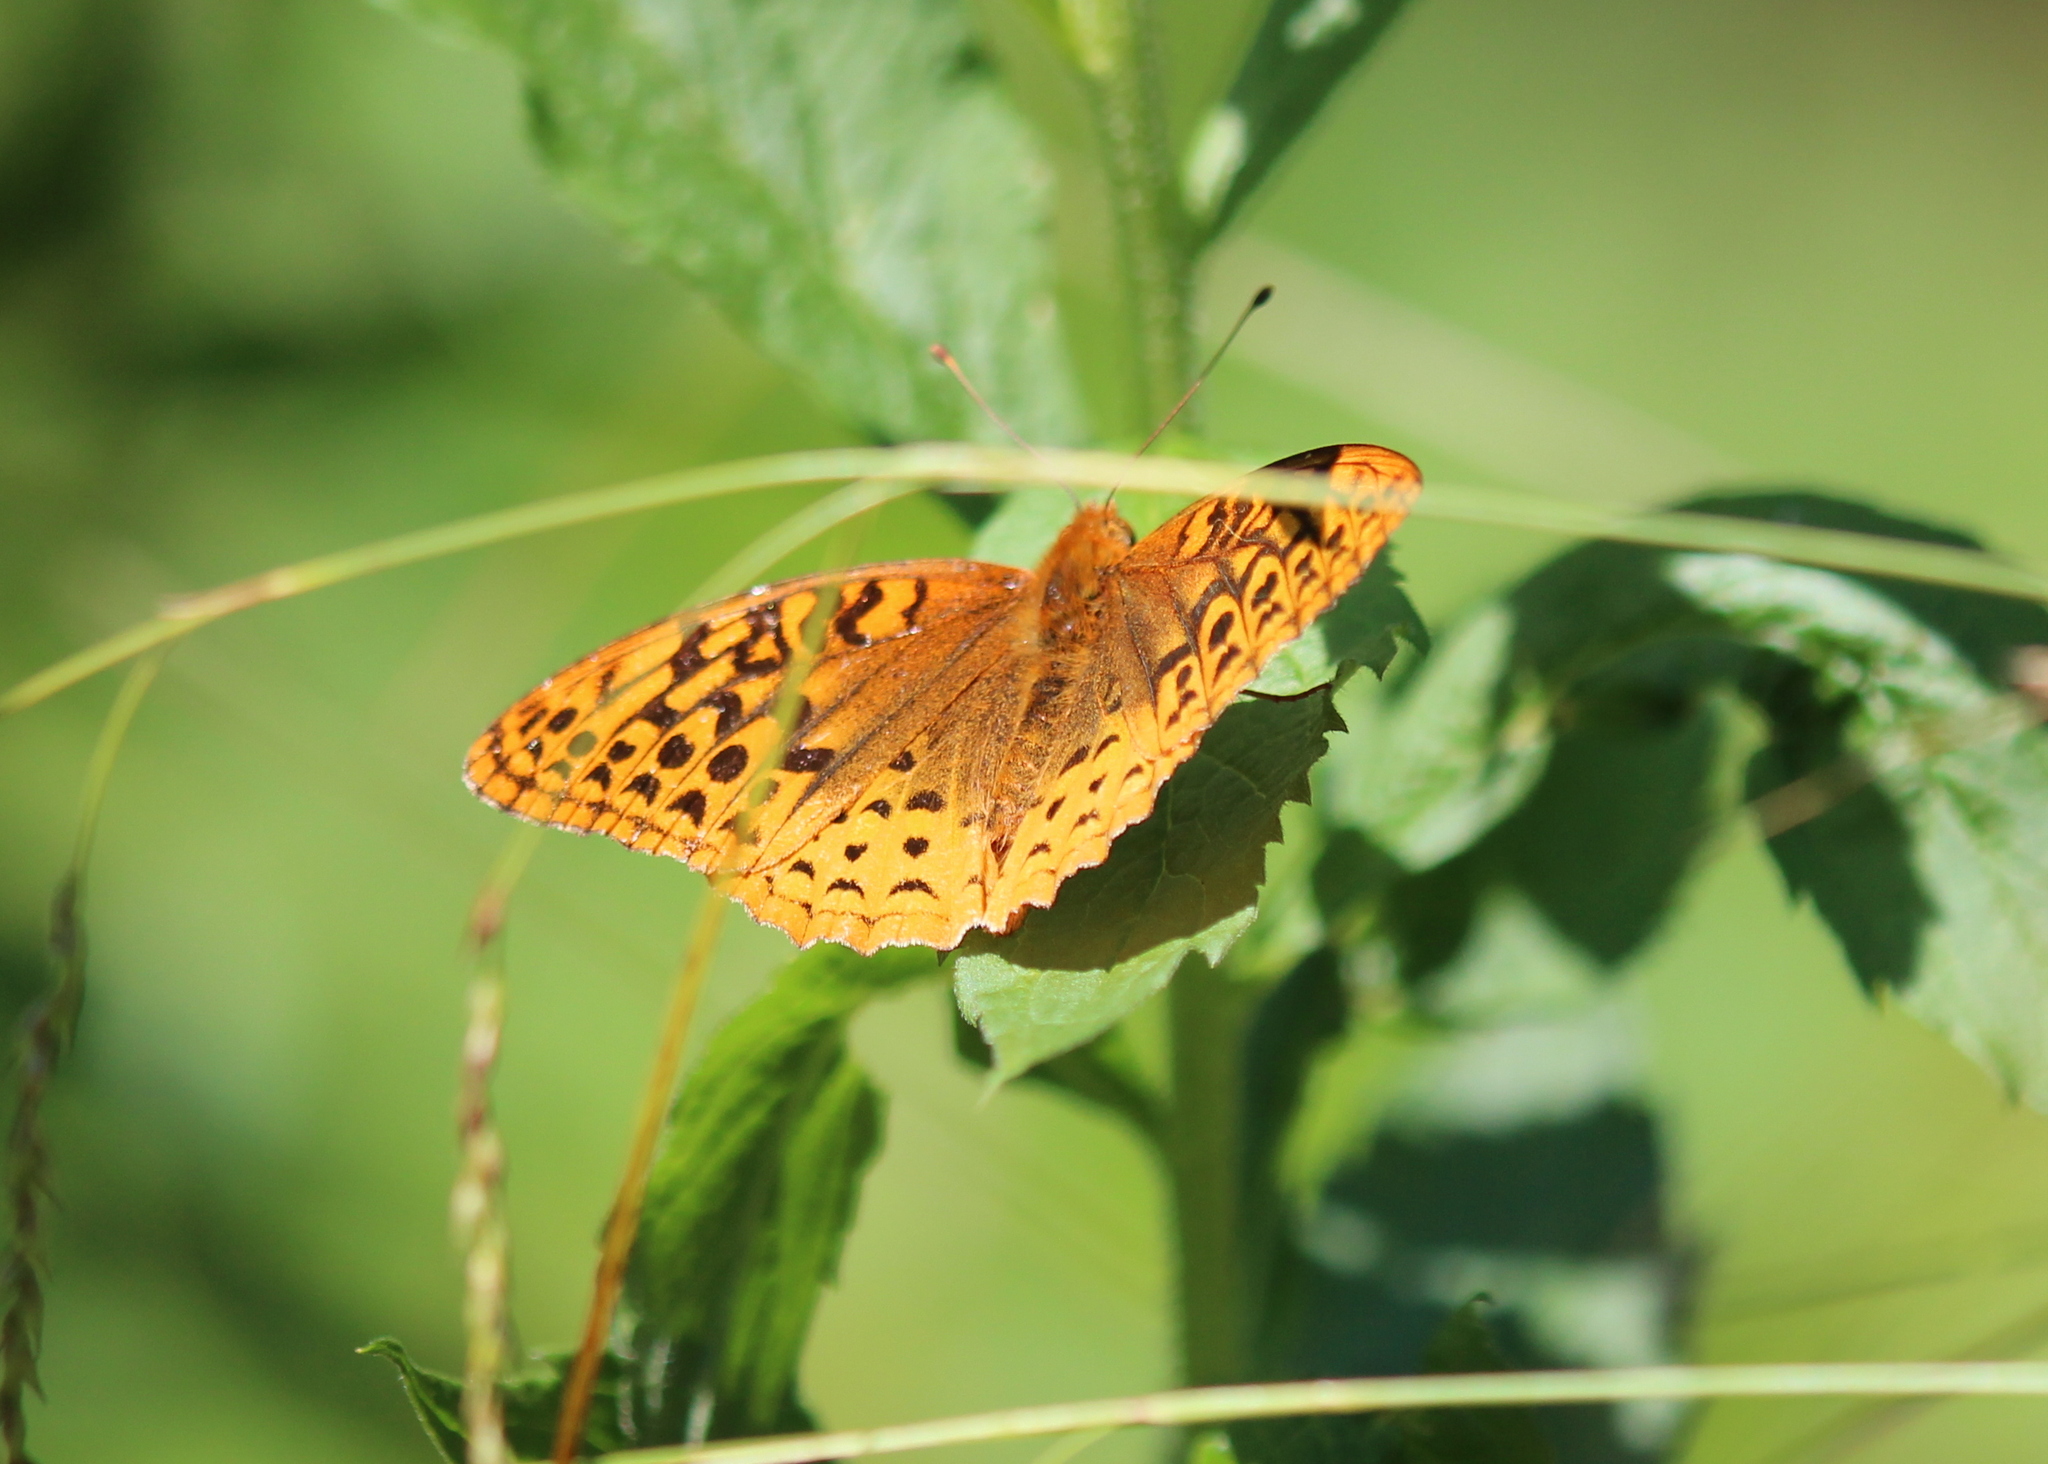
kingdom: Animalia
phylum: Arthropoda
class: Insecta
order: Lepidoptera
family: Nymphalidae
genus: Speyeria
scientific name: Speyeria cybele
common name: Great spangled fritillary
